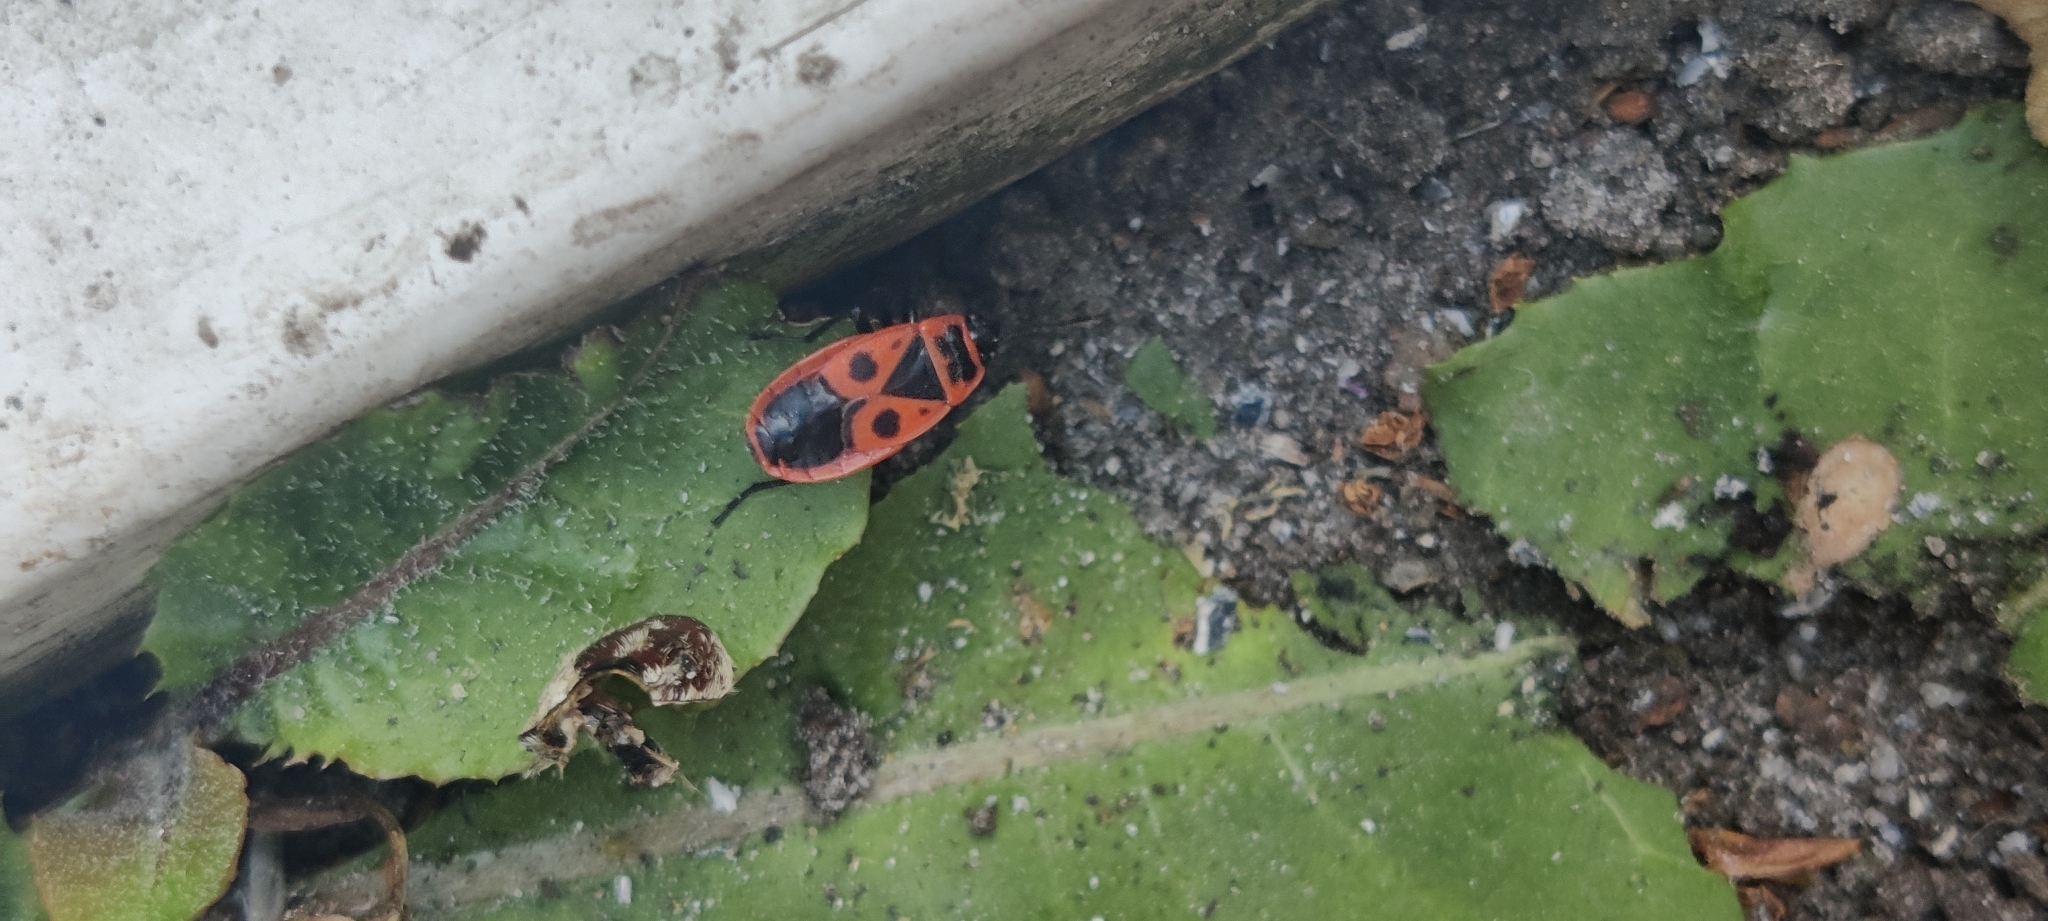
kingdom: Animalia
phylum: Arthropoda
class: Insecta
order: Hemiptera
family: Pyrrhocoridae
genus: Pyrrhocoris
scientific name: Pyrrhocoris apterus
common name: Firebug
